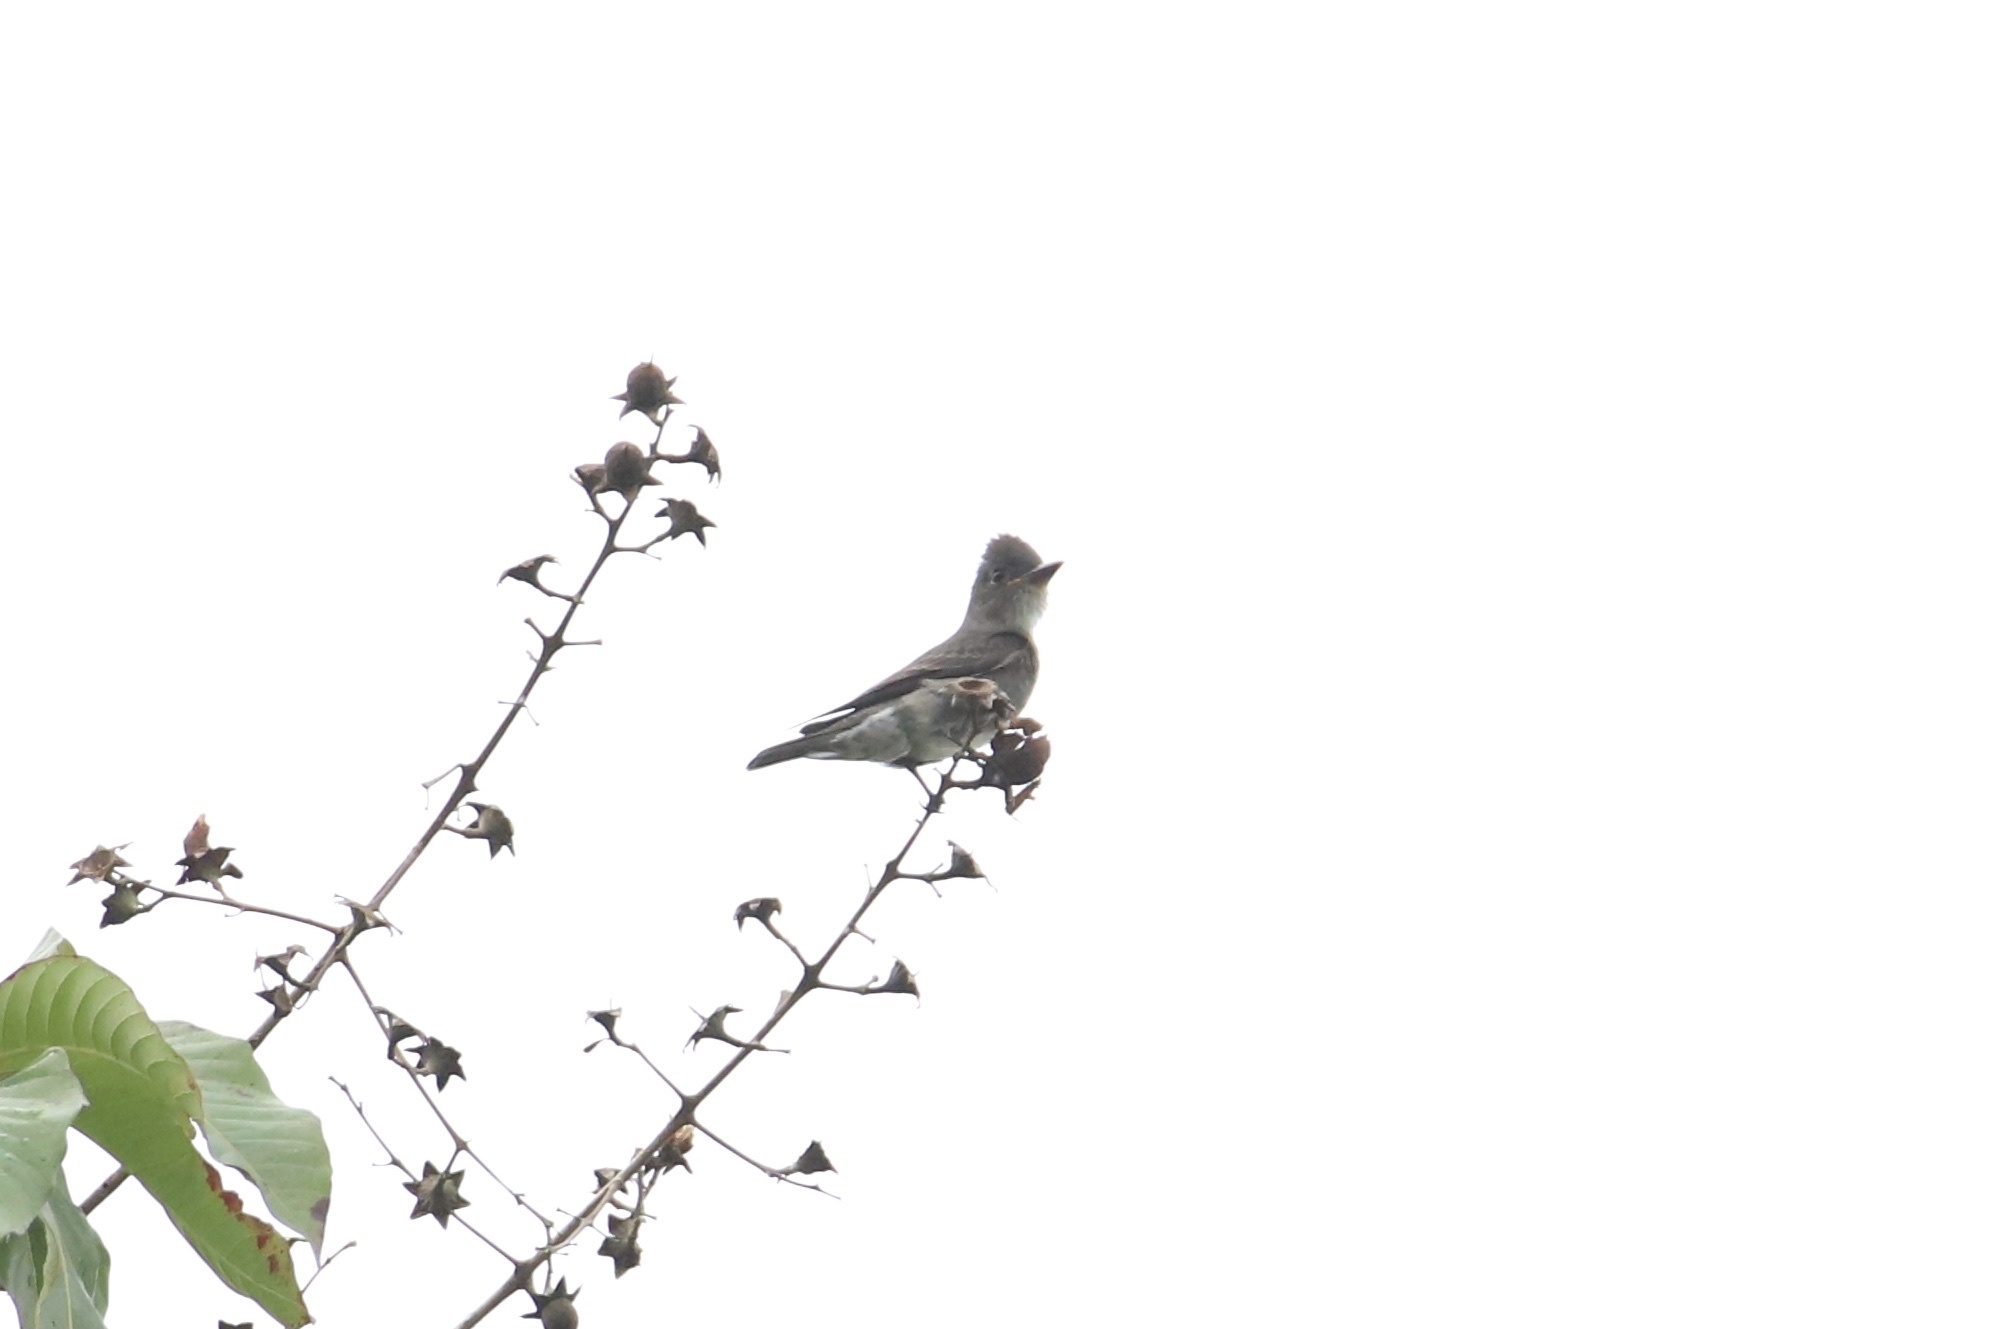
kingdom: Animalia
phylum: Chordata
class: Aves
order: Passeriformes
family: Tyrannidae
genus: Contopus
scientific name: Contopus cooperi
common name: Olive-sided flycatcher
